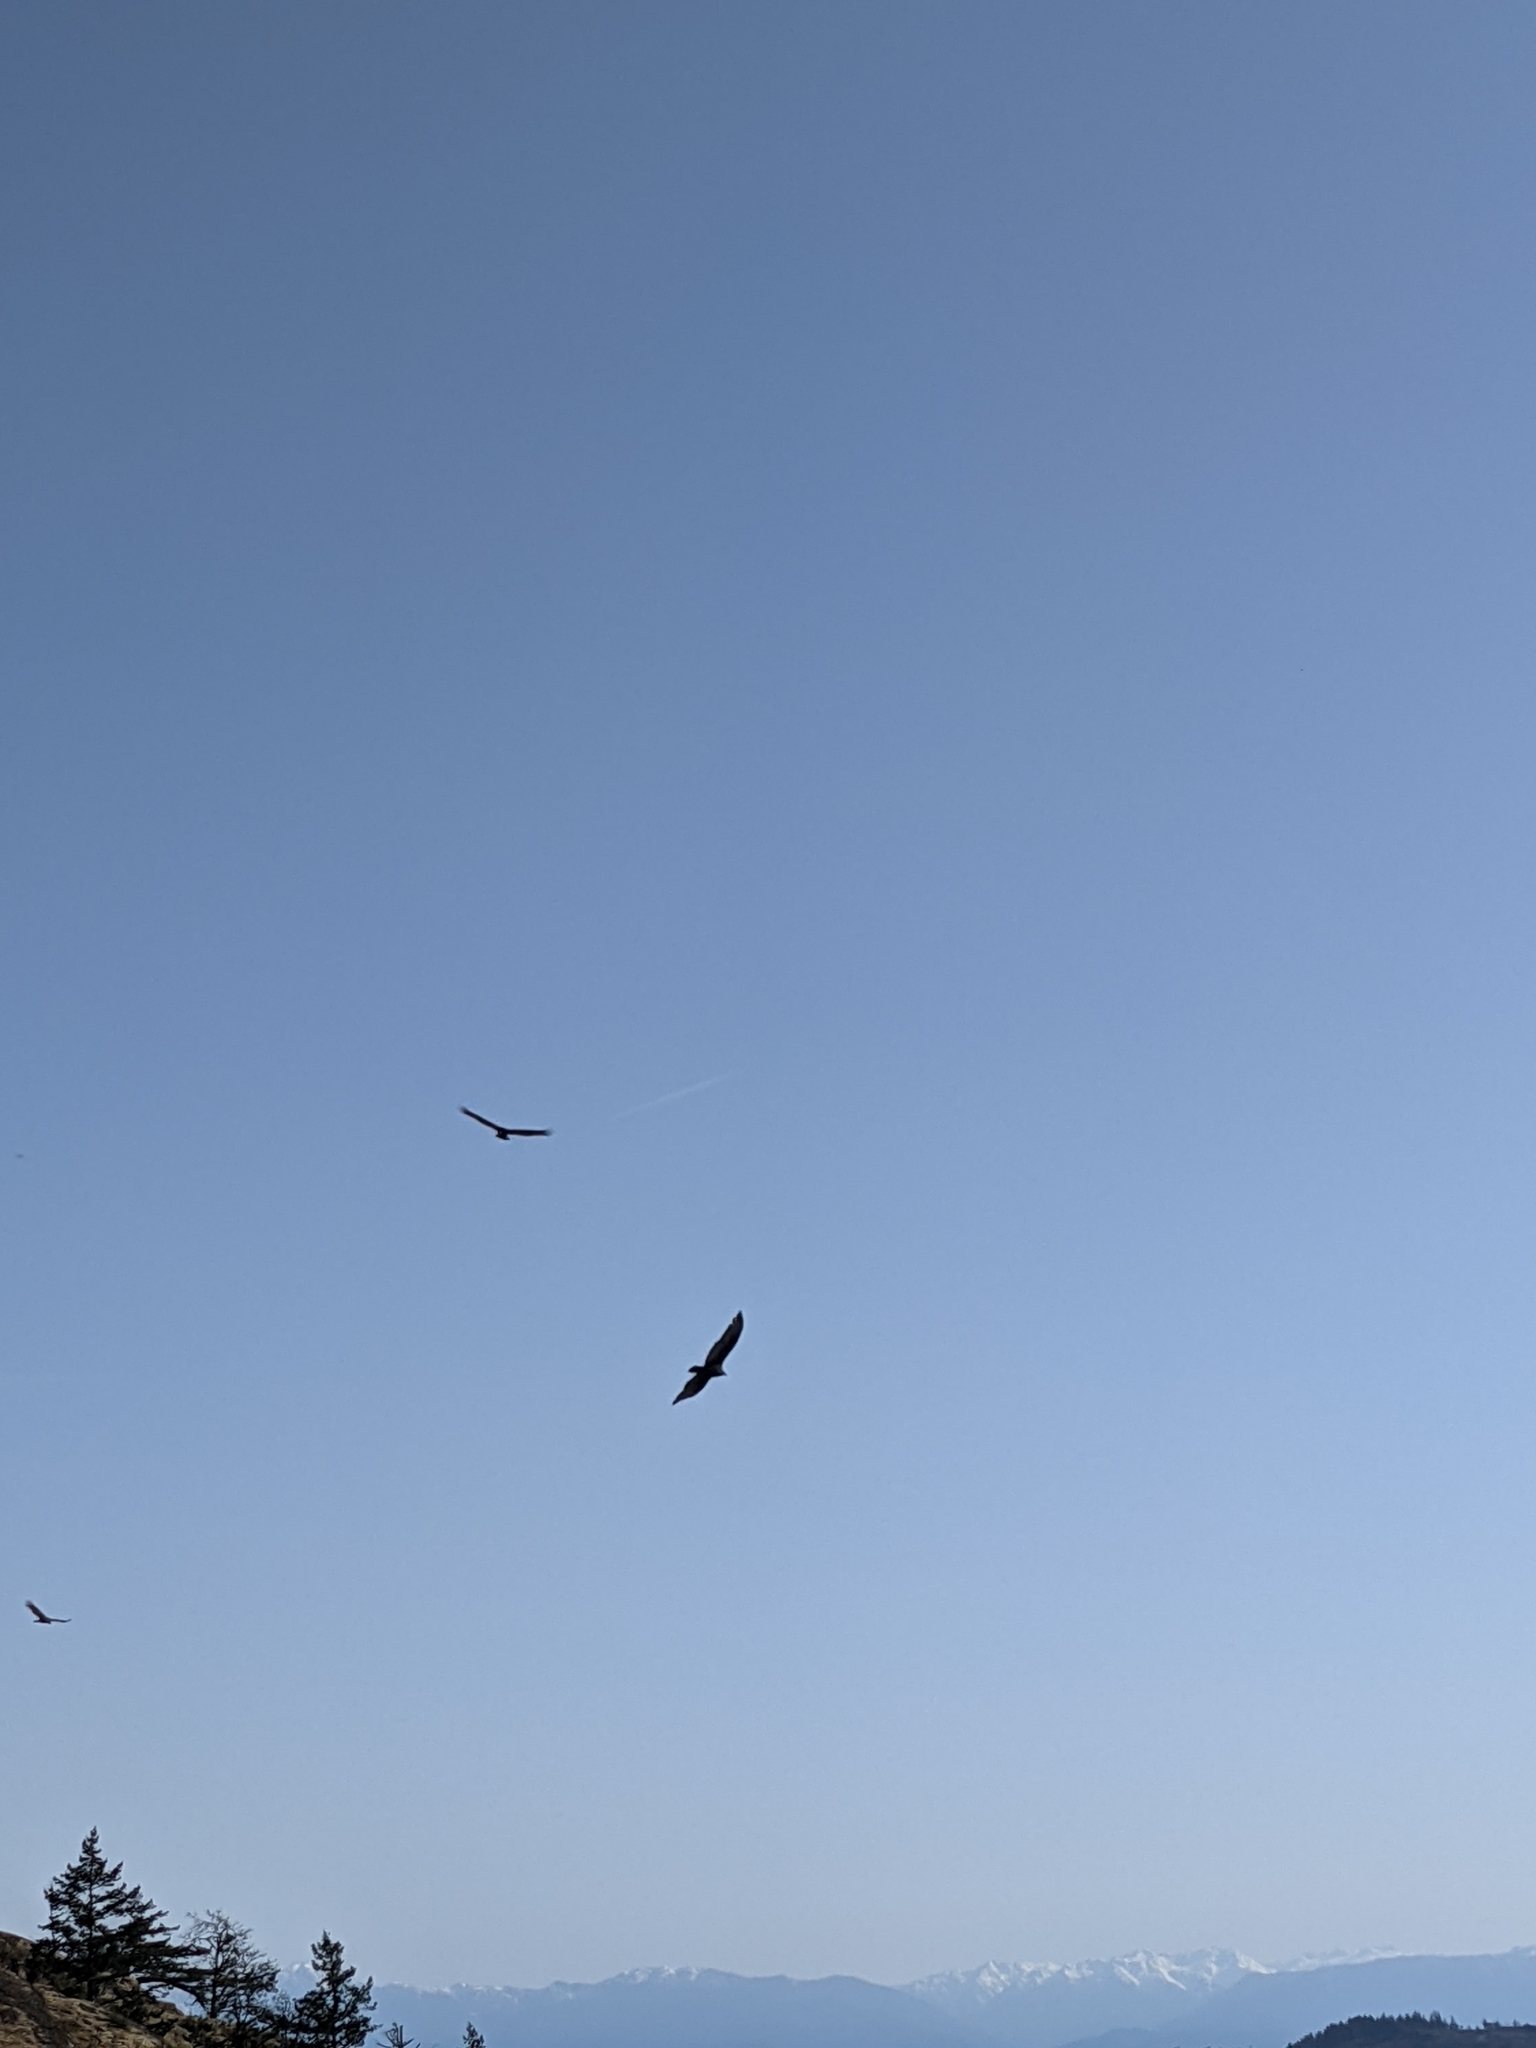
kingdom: Animalia
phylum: Chordata
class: Aves
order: Accipitriformes
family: Cathartidae
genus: Cathartes
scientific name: Cathartes aura
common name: Turkey vulture
